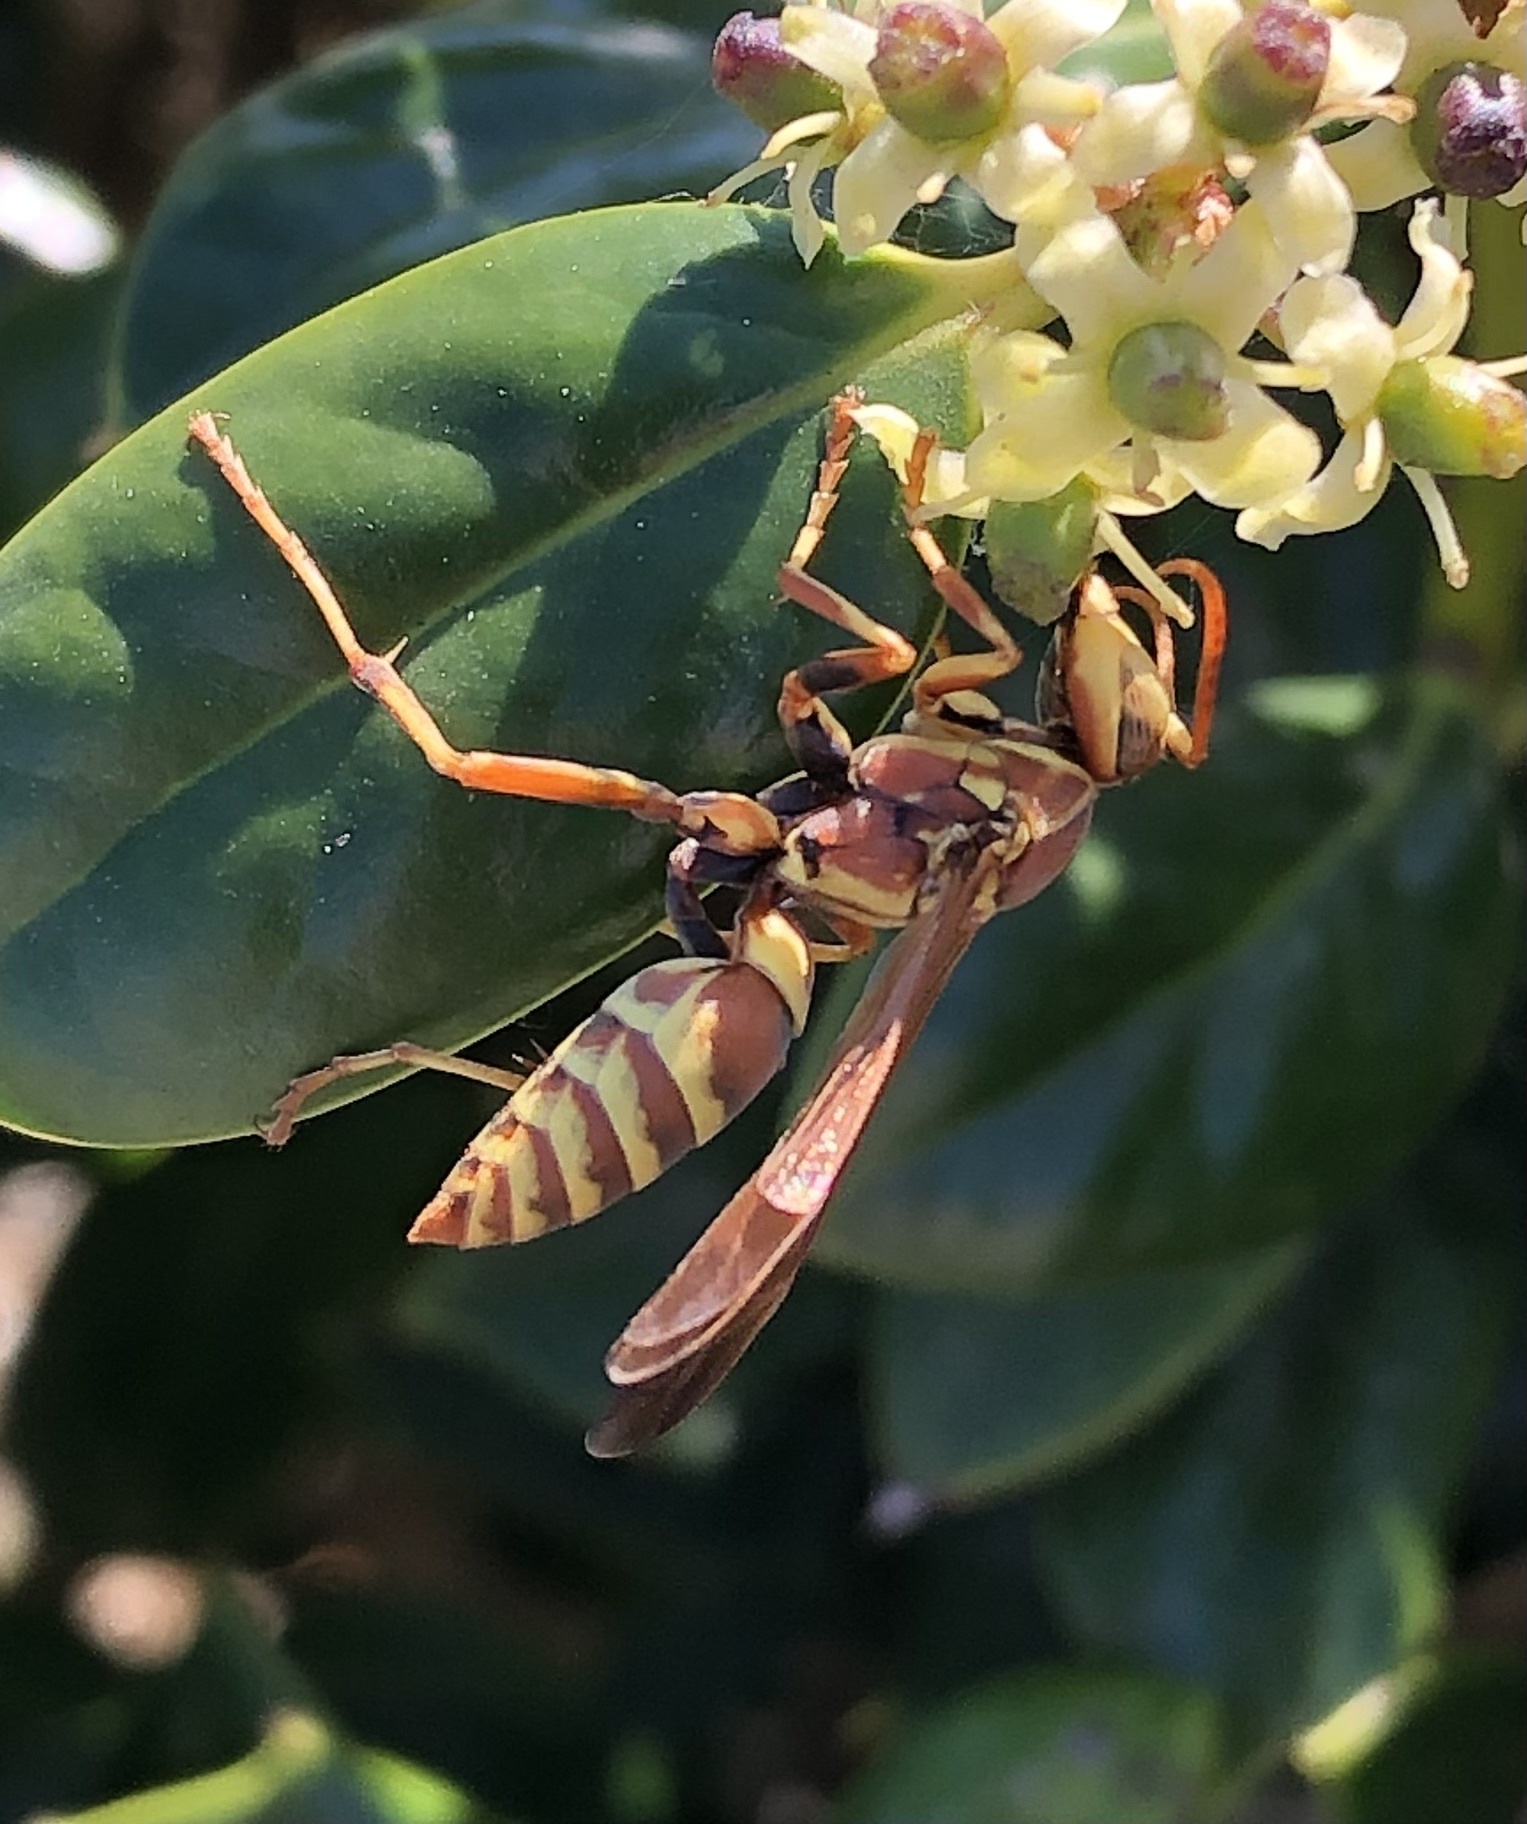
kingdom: Animalia
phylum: Arthropoda
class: Insecta
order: Hymenoptera
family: Eumenidae
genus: Polistes
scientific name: Polistes dorsalis
